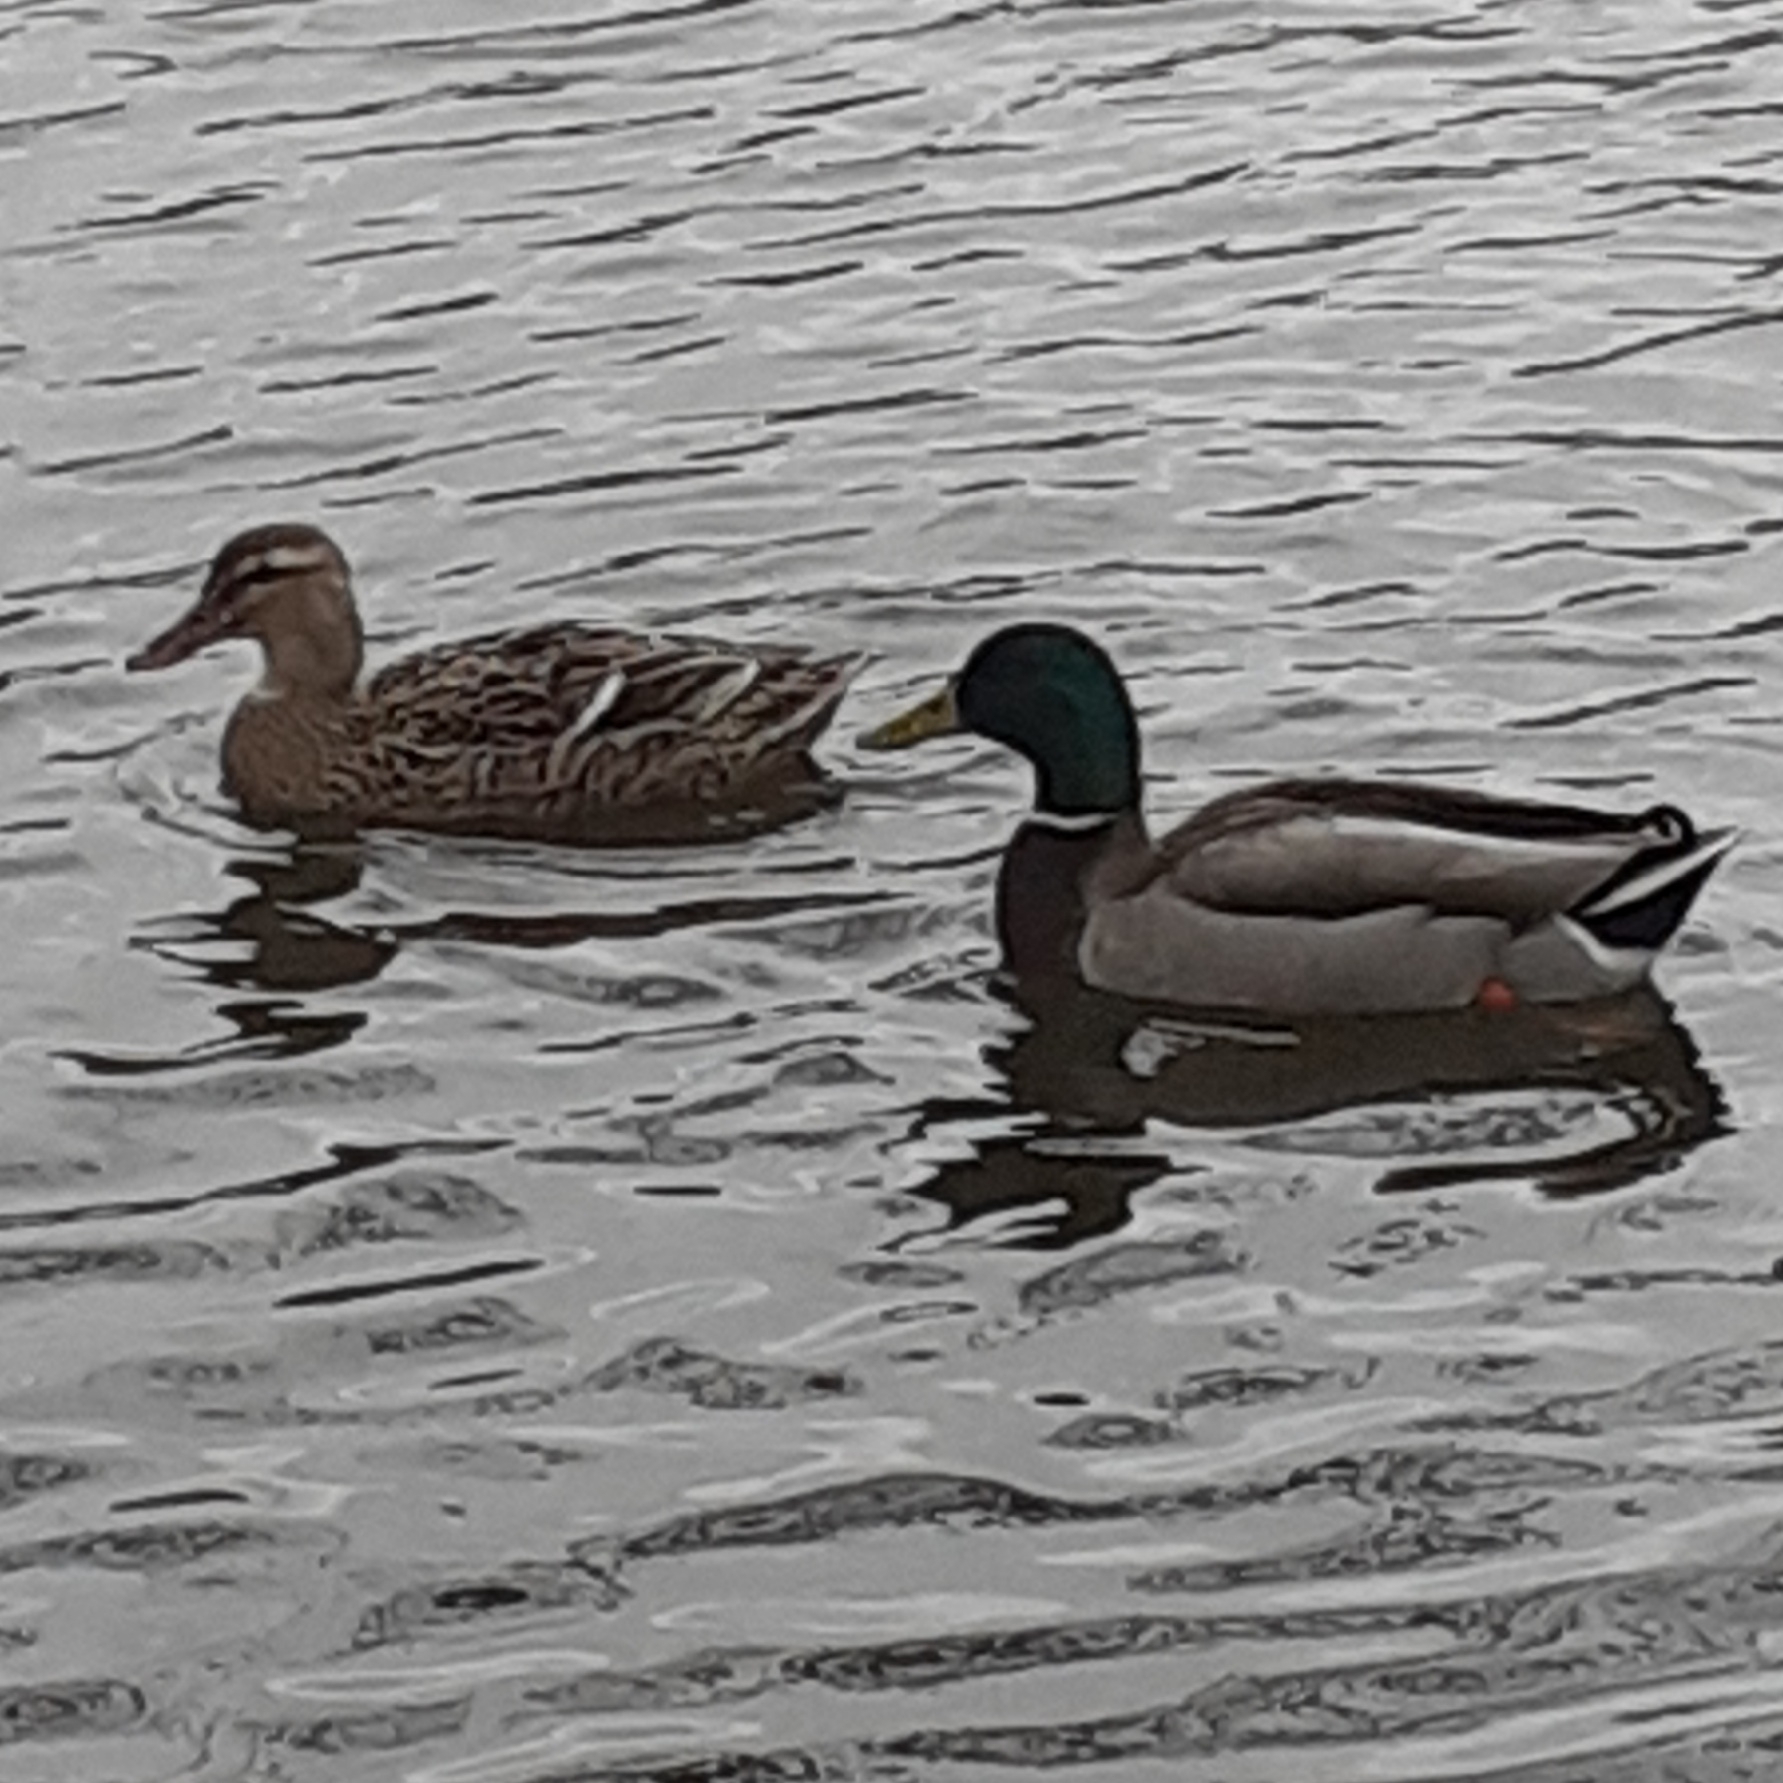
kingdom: Animalia
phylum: Chordata
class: Aves
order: Anseriformes
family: Anatidae
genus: Anas
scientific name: Anas platyrhynchos
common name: Mallard
